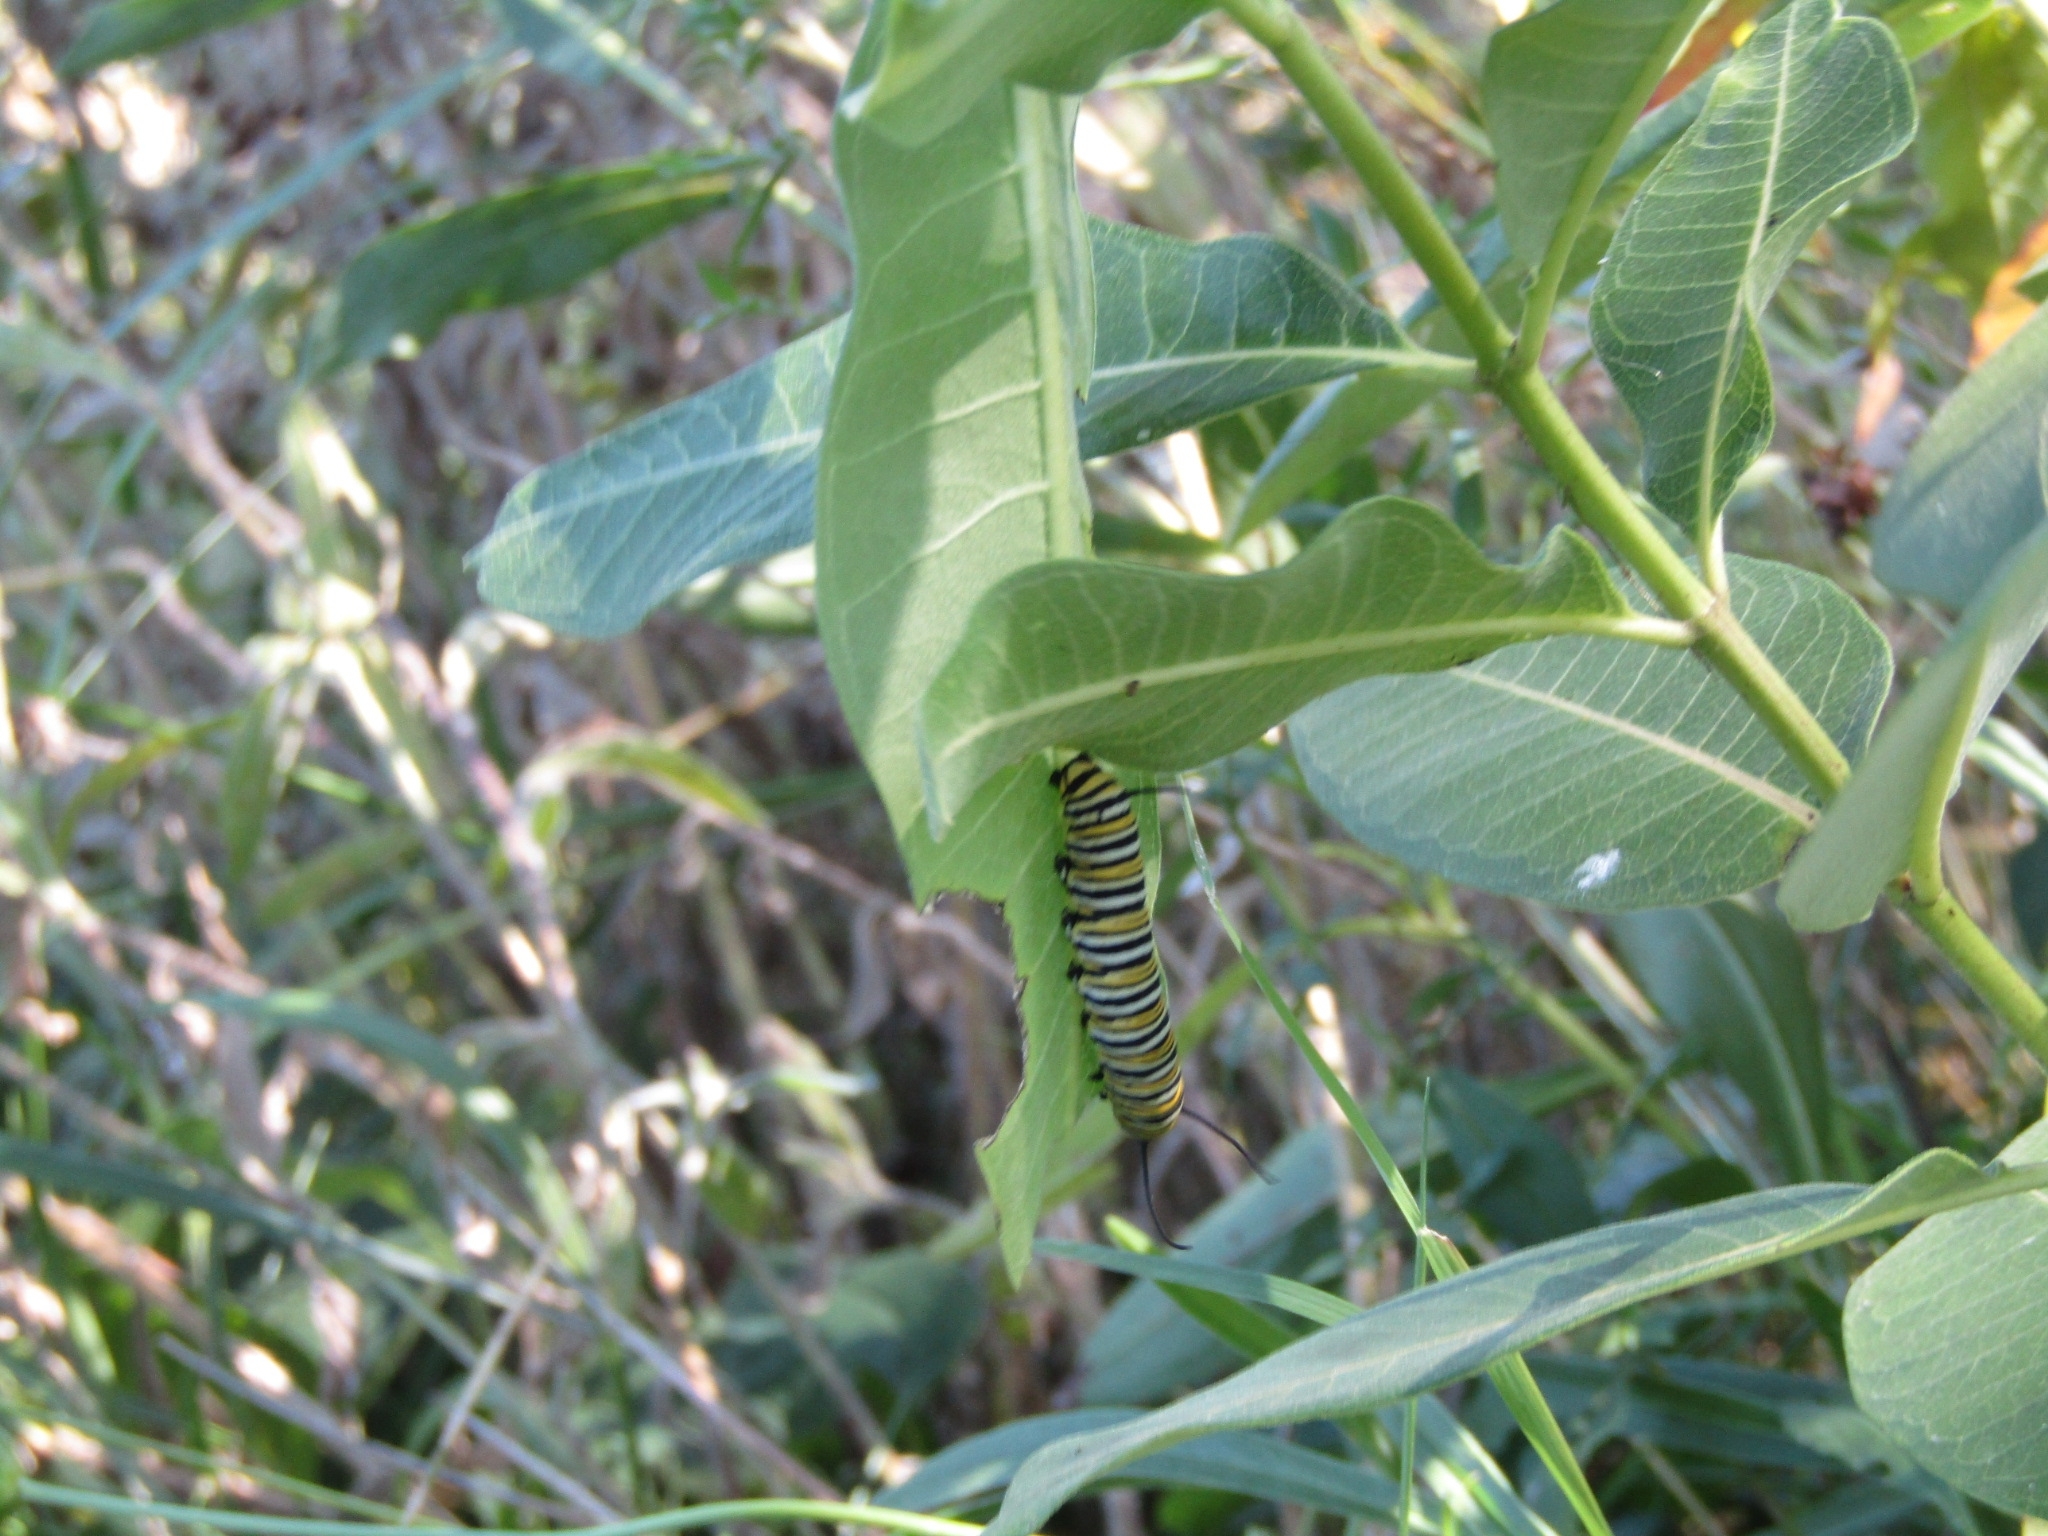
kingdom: Animalia
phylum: Arthropoda
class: Insecta
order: Lepidoptera
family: Nymphalidae
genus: Danaus
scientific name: Danaus plexippus
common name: Monarch
